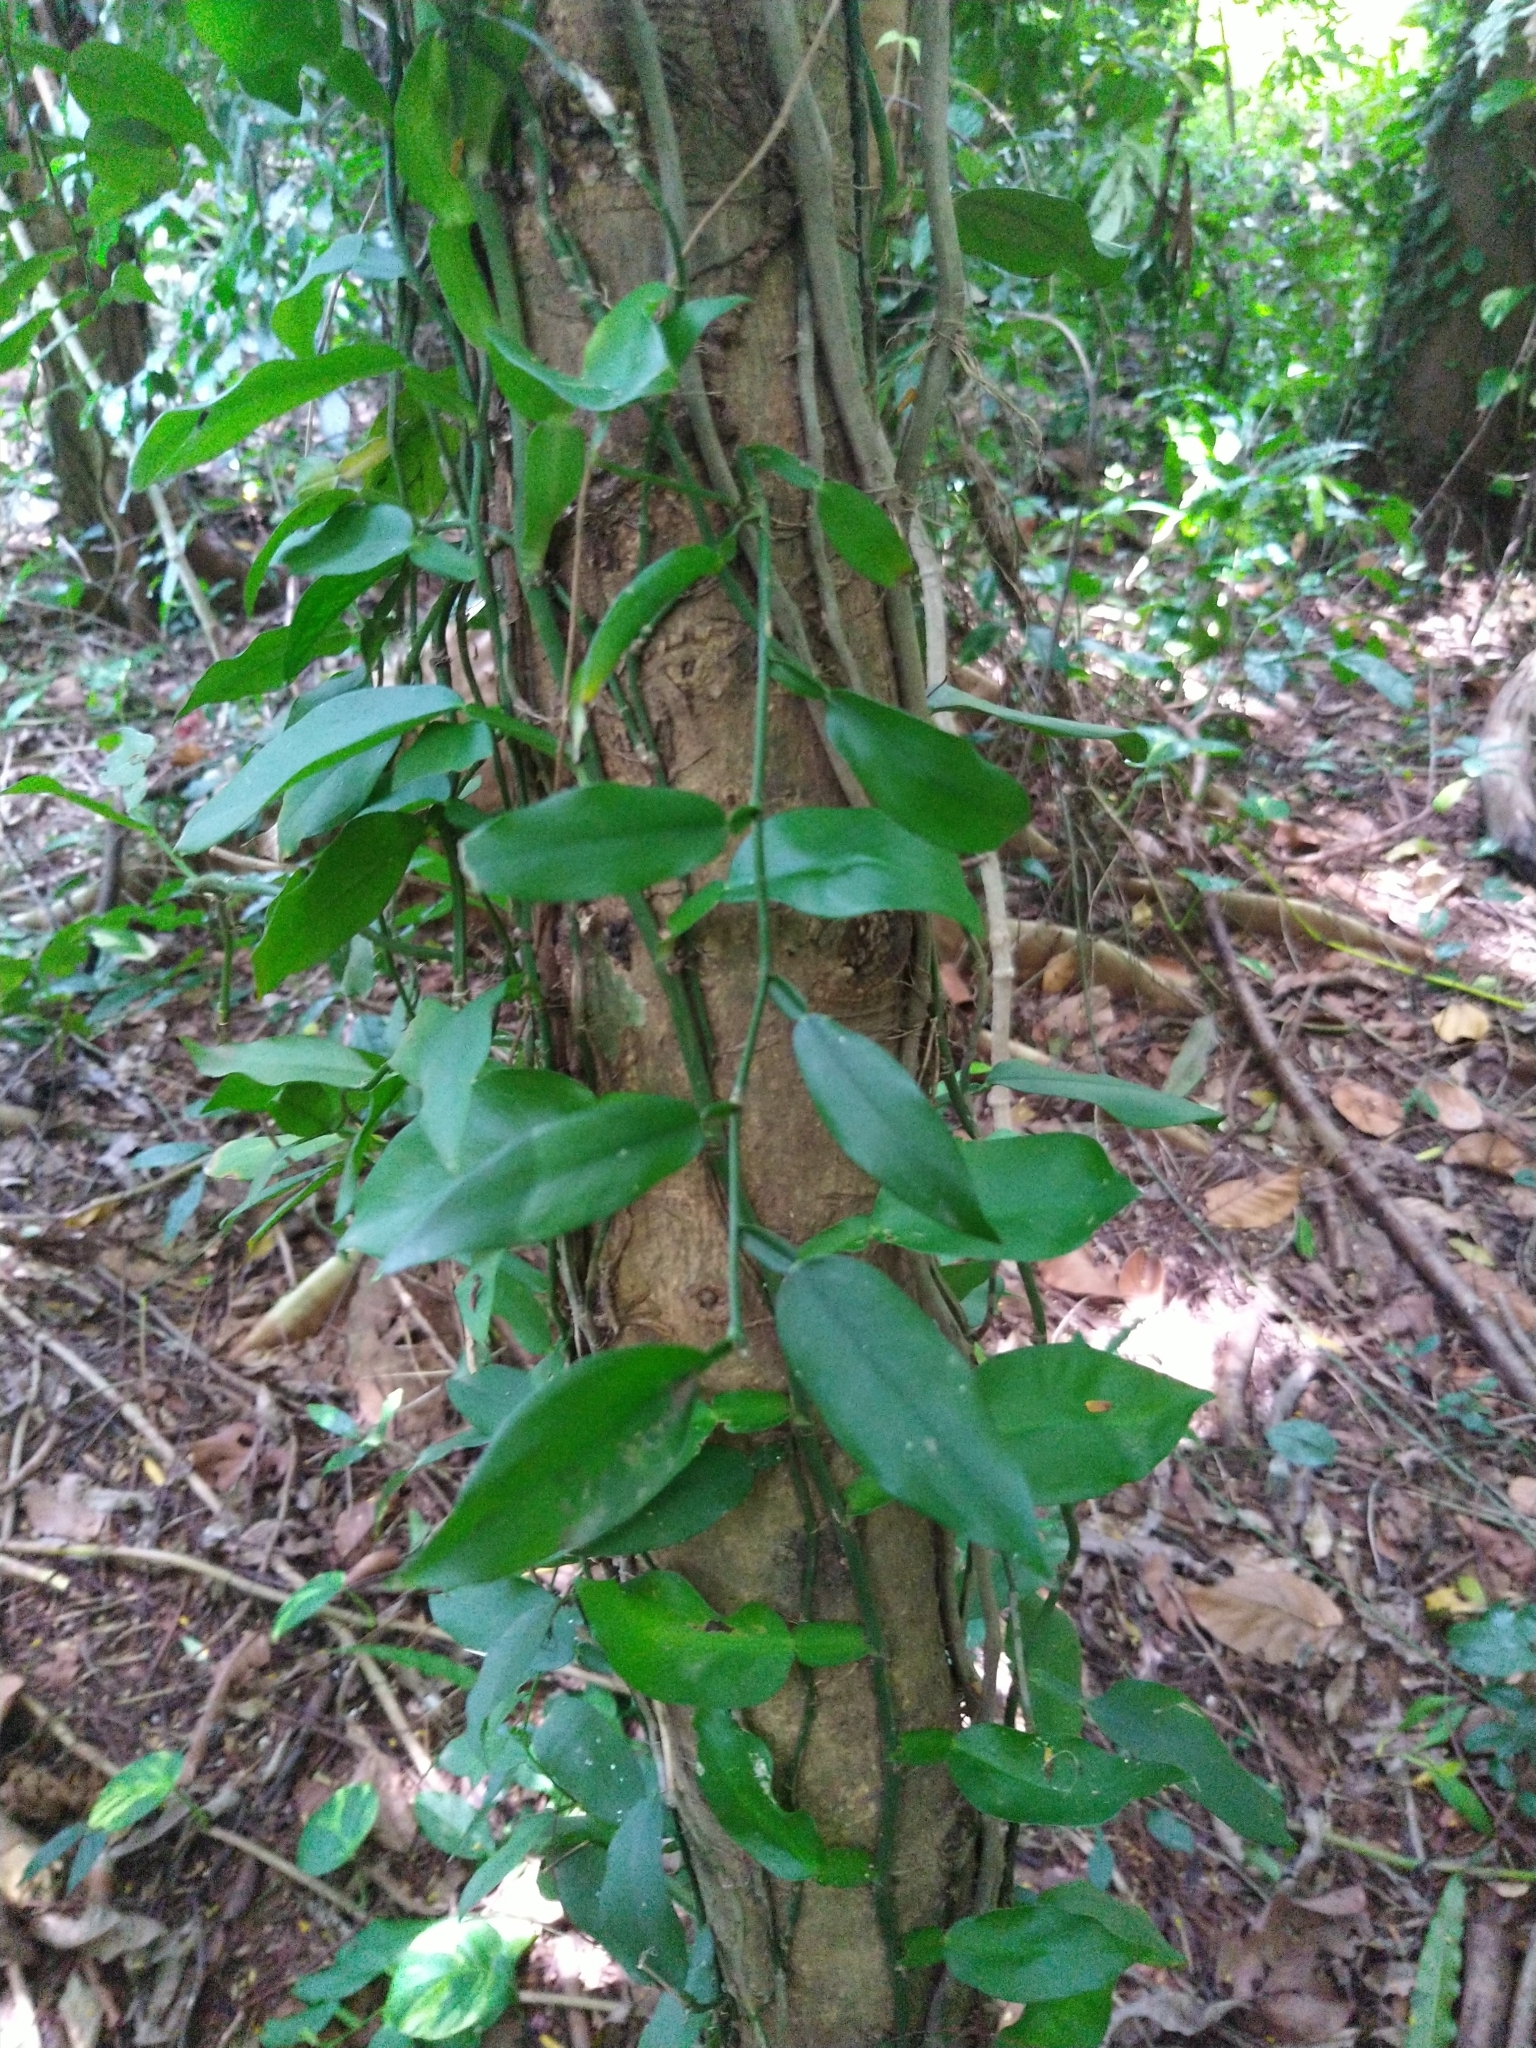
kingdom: Plantae
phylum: Tracheophyta
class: Liliopsida
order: Alismatales
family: Araceae
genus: Pothos
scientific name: Pothos chinensis
